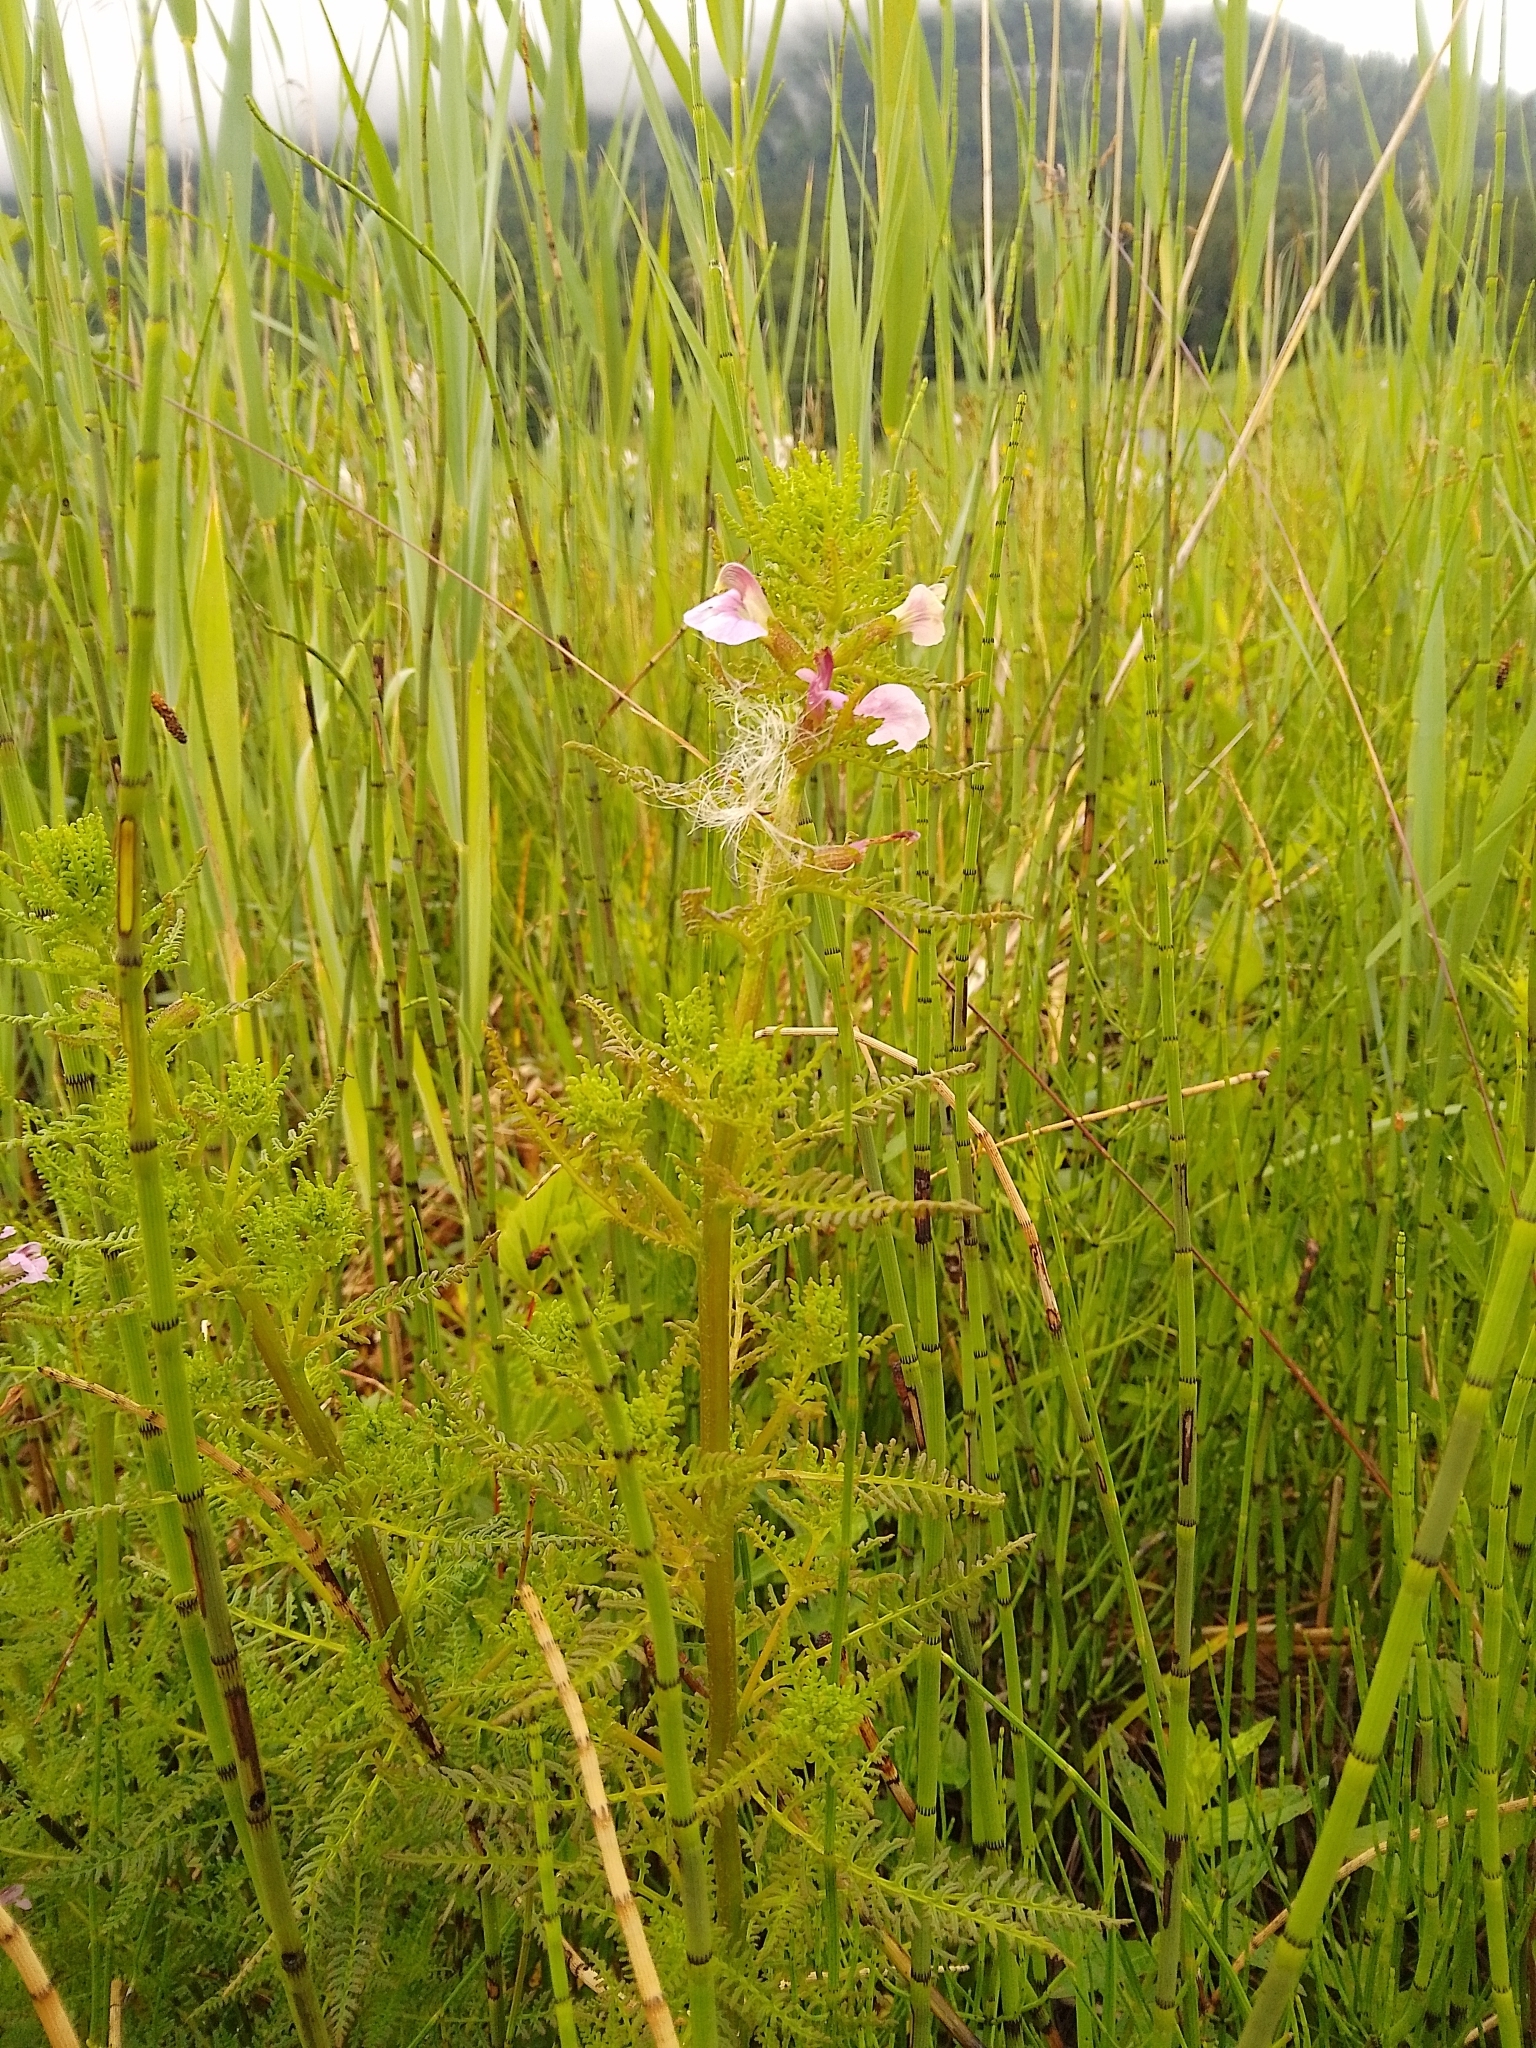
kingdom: Plantae
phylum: Tracheophyta
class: Magnoliopsida
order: Lamiales
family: Orobanchaceae
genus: Pedicularis
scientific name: Pedicularis palustris
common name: Marsh lousewort
